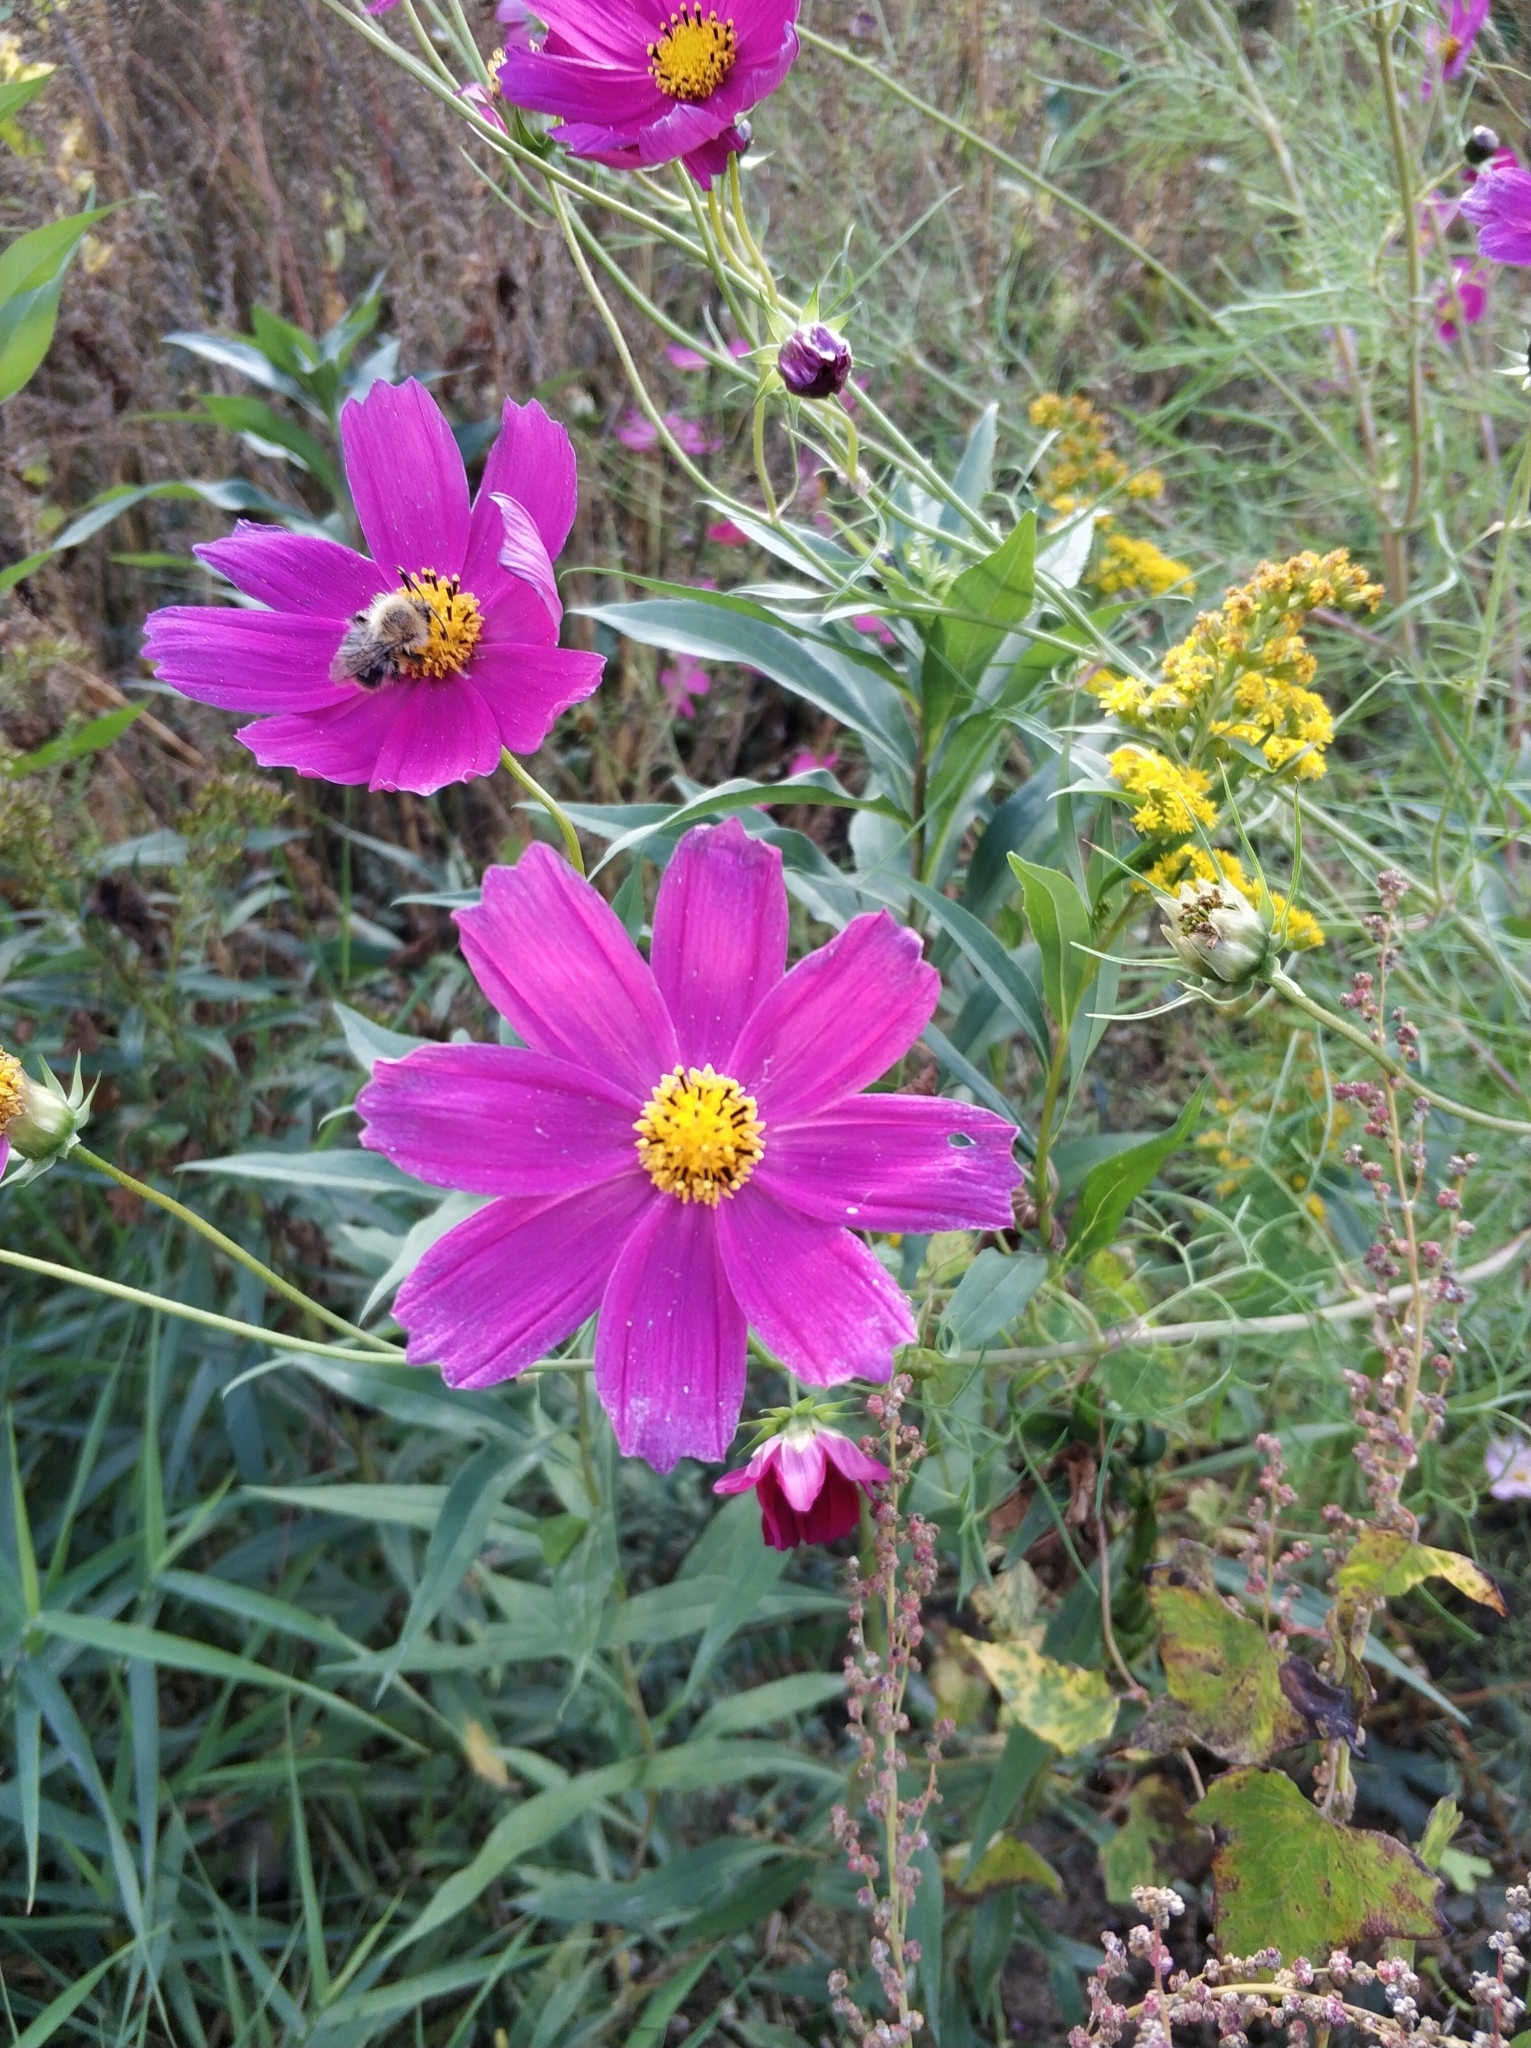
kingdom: Plantae
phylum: Tracheophyta
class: Magnoliopsida
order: Asterales
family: Asteraceae
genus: Cosmos
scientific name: Cosmos bipinnatus
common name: Garden cosmos
